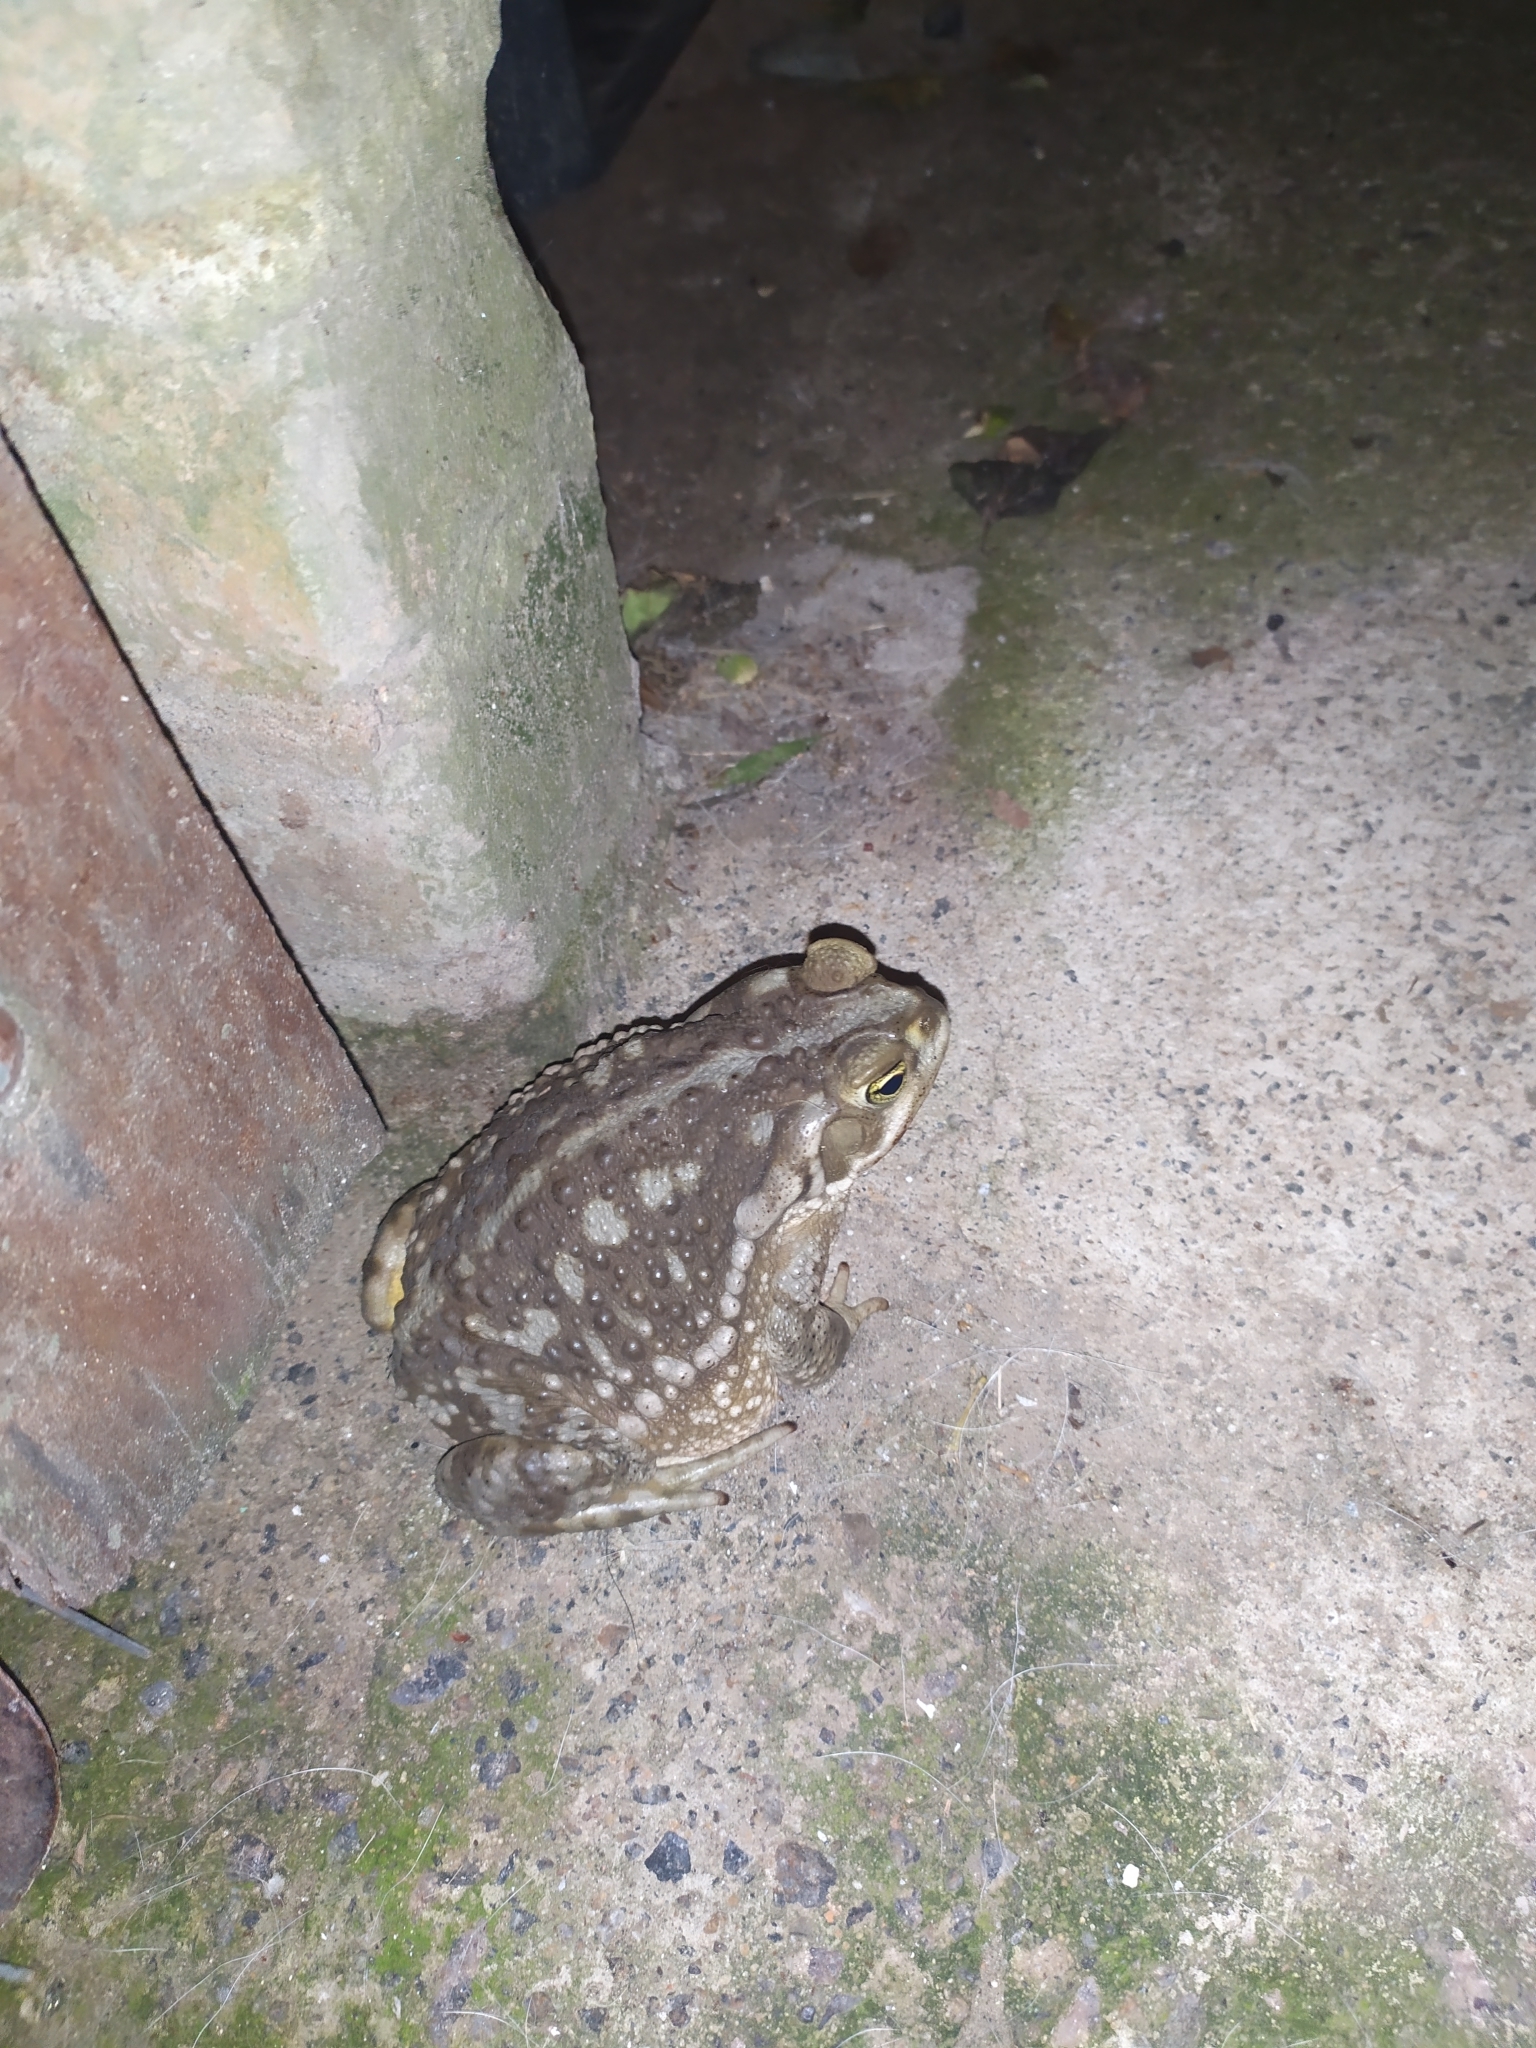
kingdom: Animalia
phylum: Chordata
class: Amphibia
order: Anura
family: Bufonidae
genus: Rhinella
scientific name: Rhinella arenarum
